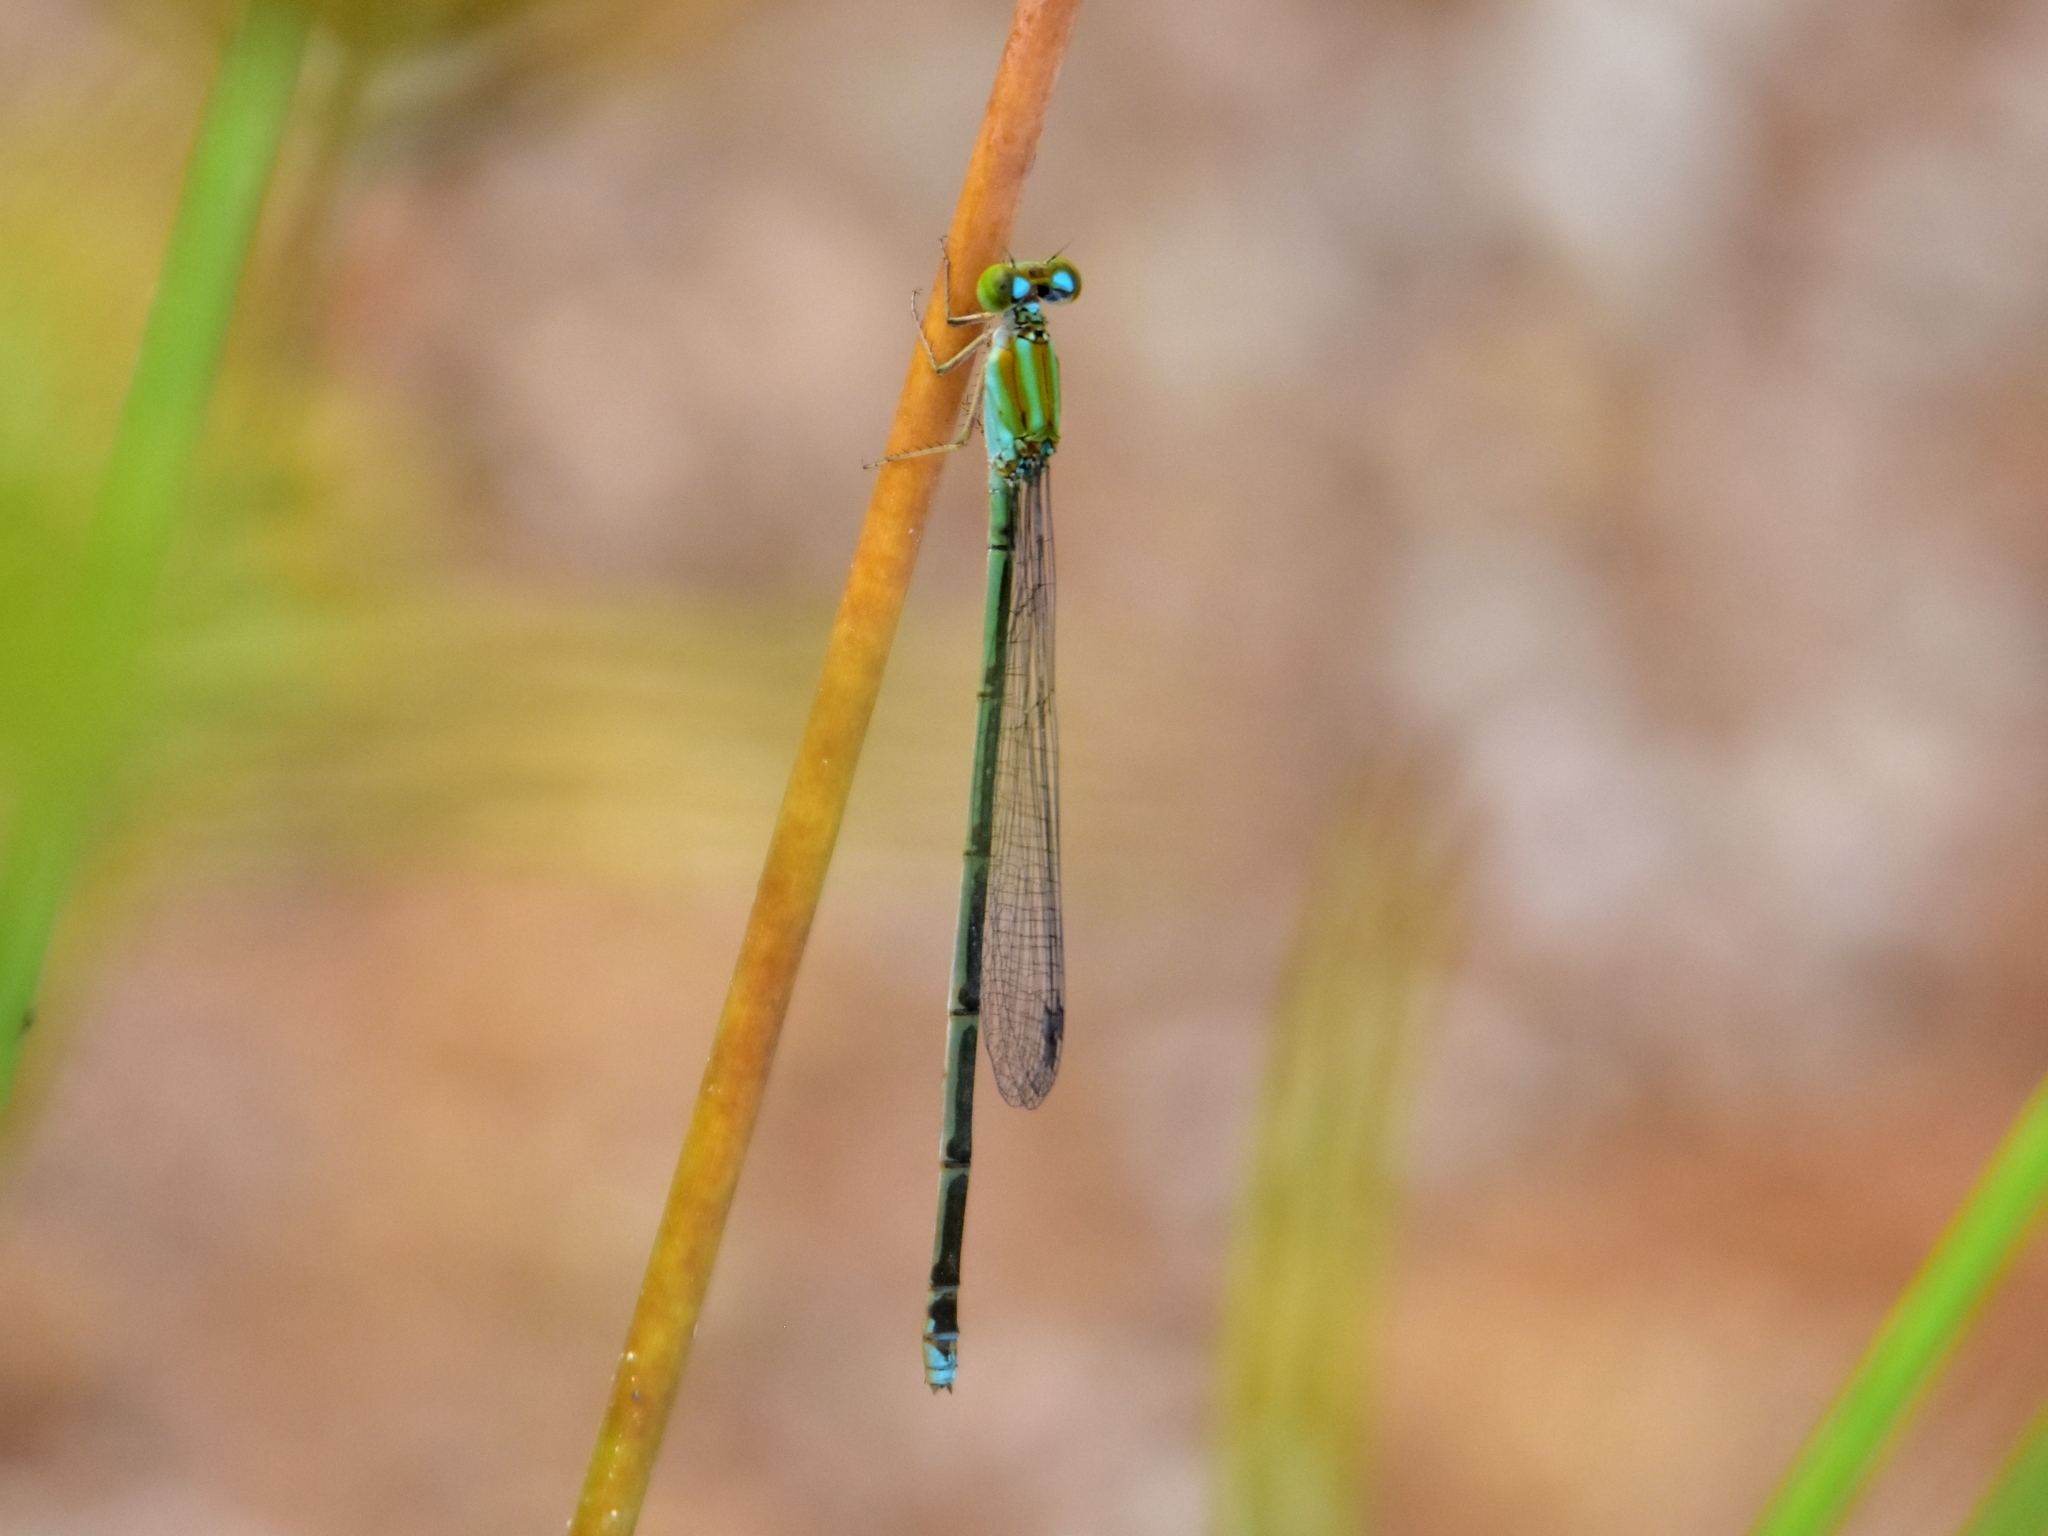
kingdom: Animalia
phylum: Arthropoda
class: Insecta
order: Odonata
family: Coenagrionidae
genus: Pseudagrion
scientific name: Pseudagrion microcephalum
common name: Blue riverdamsel
